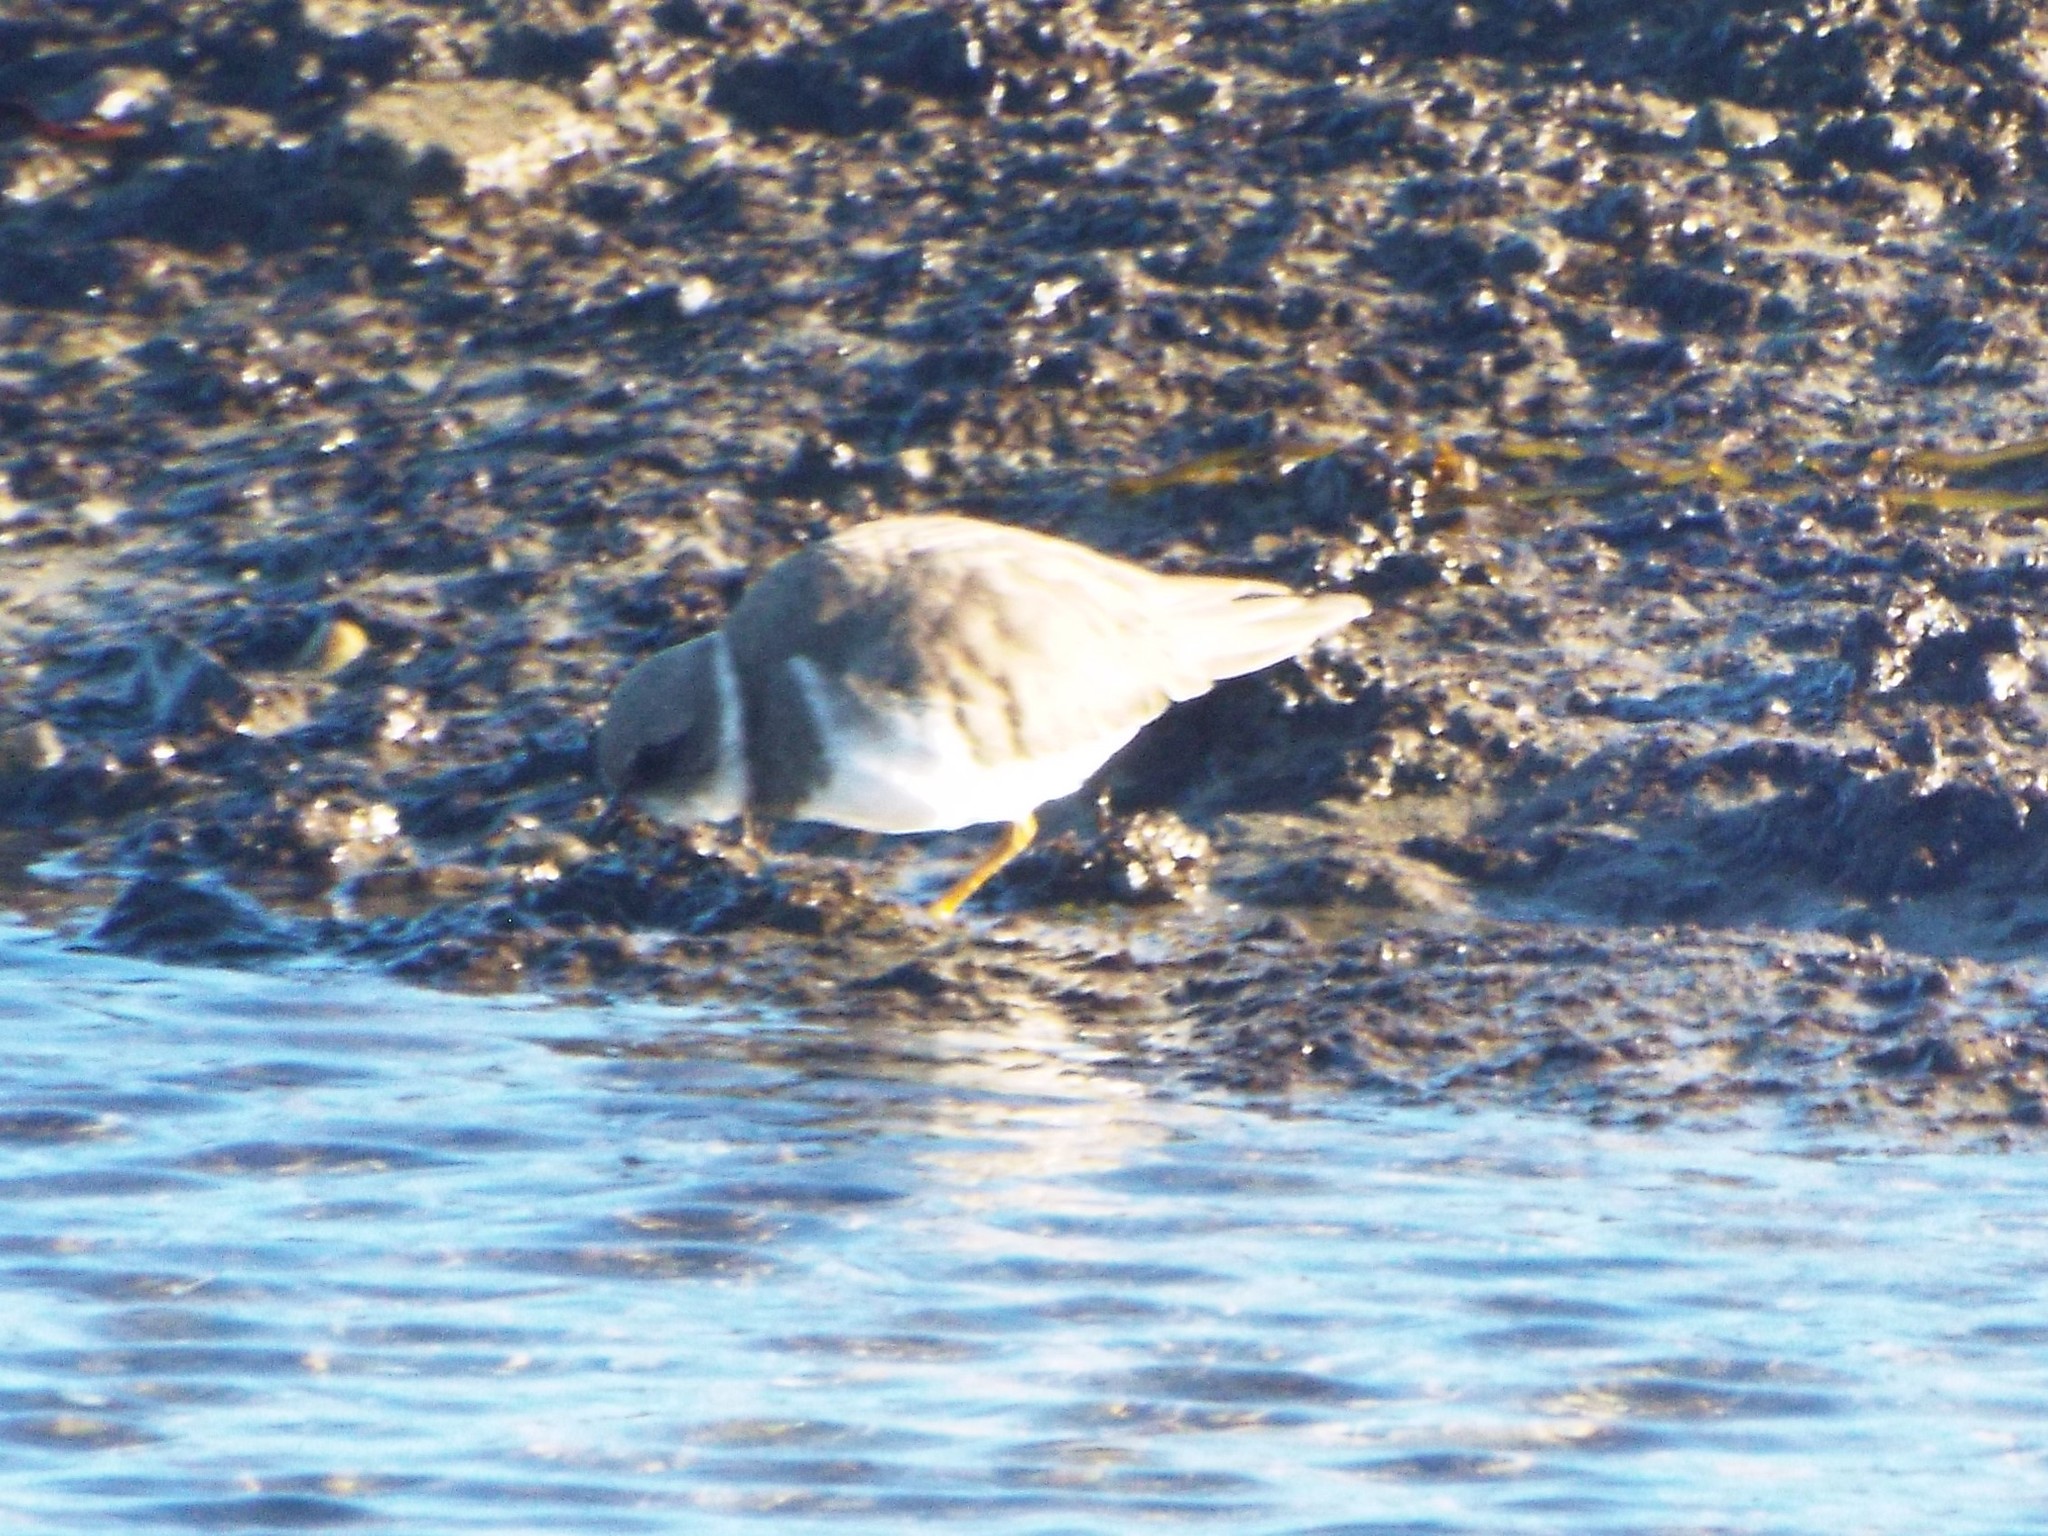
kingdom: Animalia
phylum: Chordata
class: Aves
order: Charadriiformes
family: Charadriidae
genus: Charadrius
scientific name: Charadrius semipalmatus
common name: Semipalmated plover
